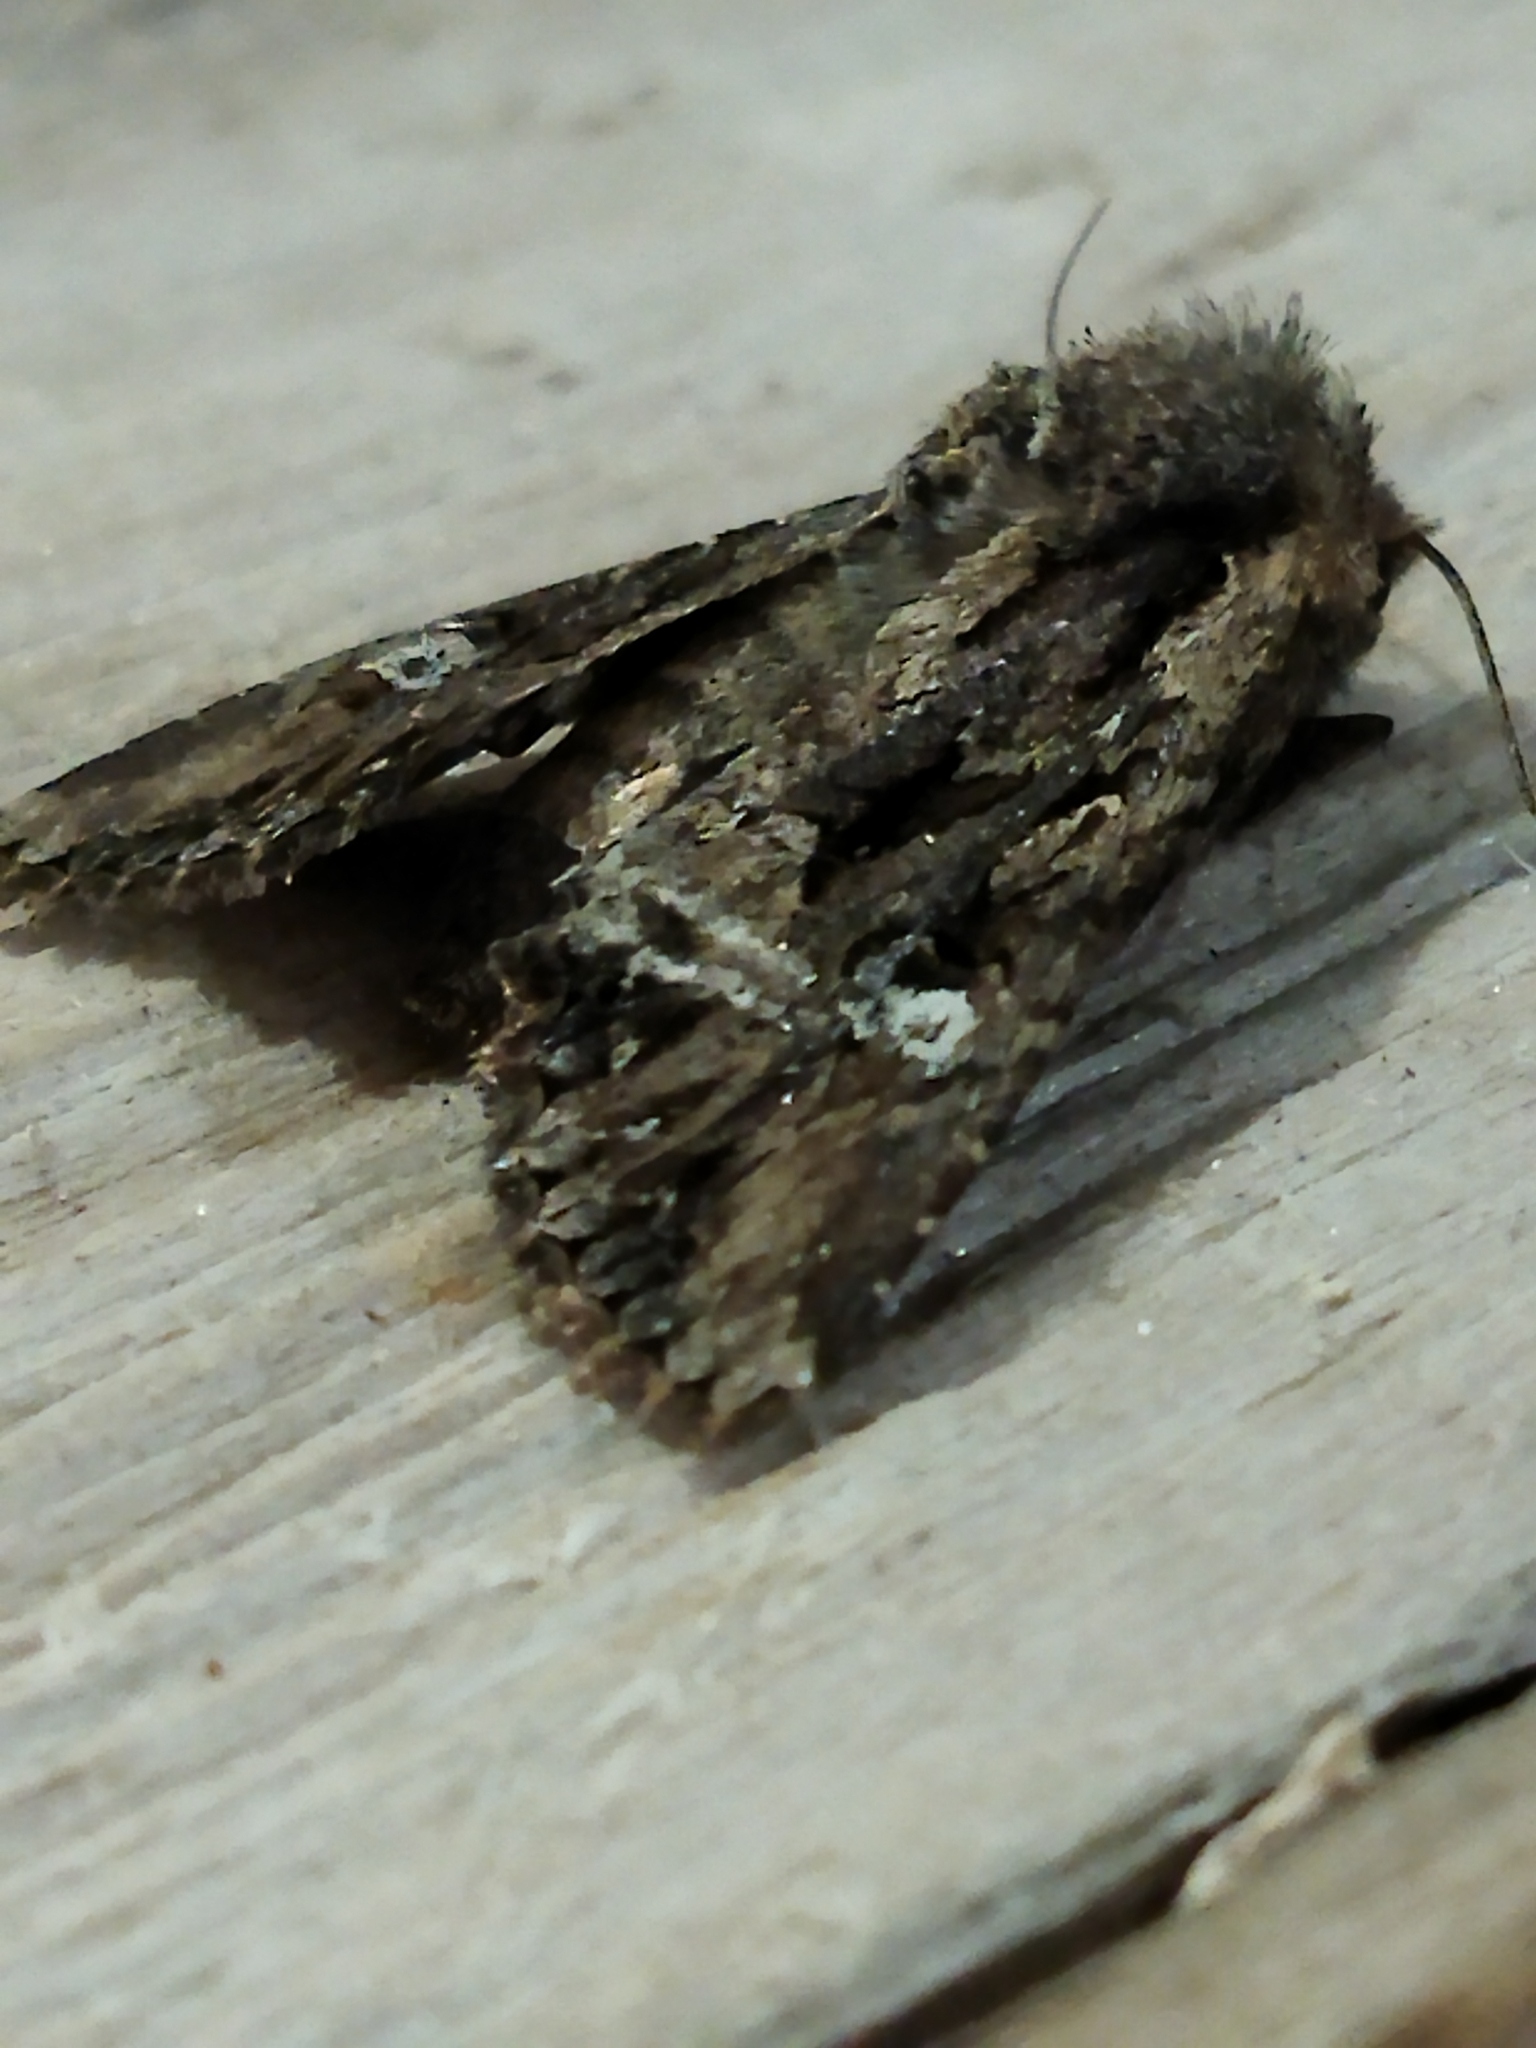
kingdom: Animalia
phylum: Arthropoda
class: Insecta
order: Lepidoptera
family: Noctuidae
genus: Polymixis
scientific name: Polymixis trisignata
